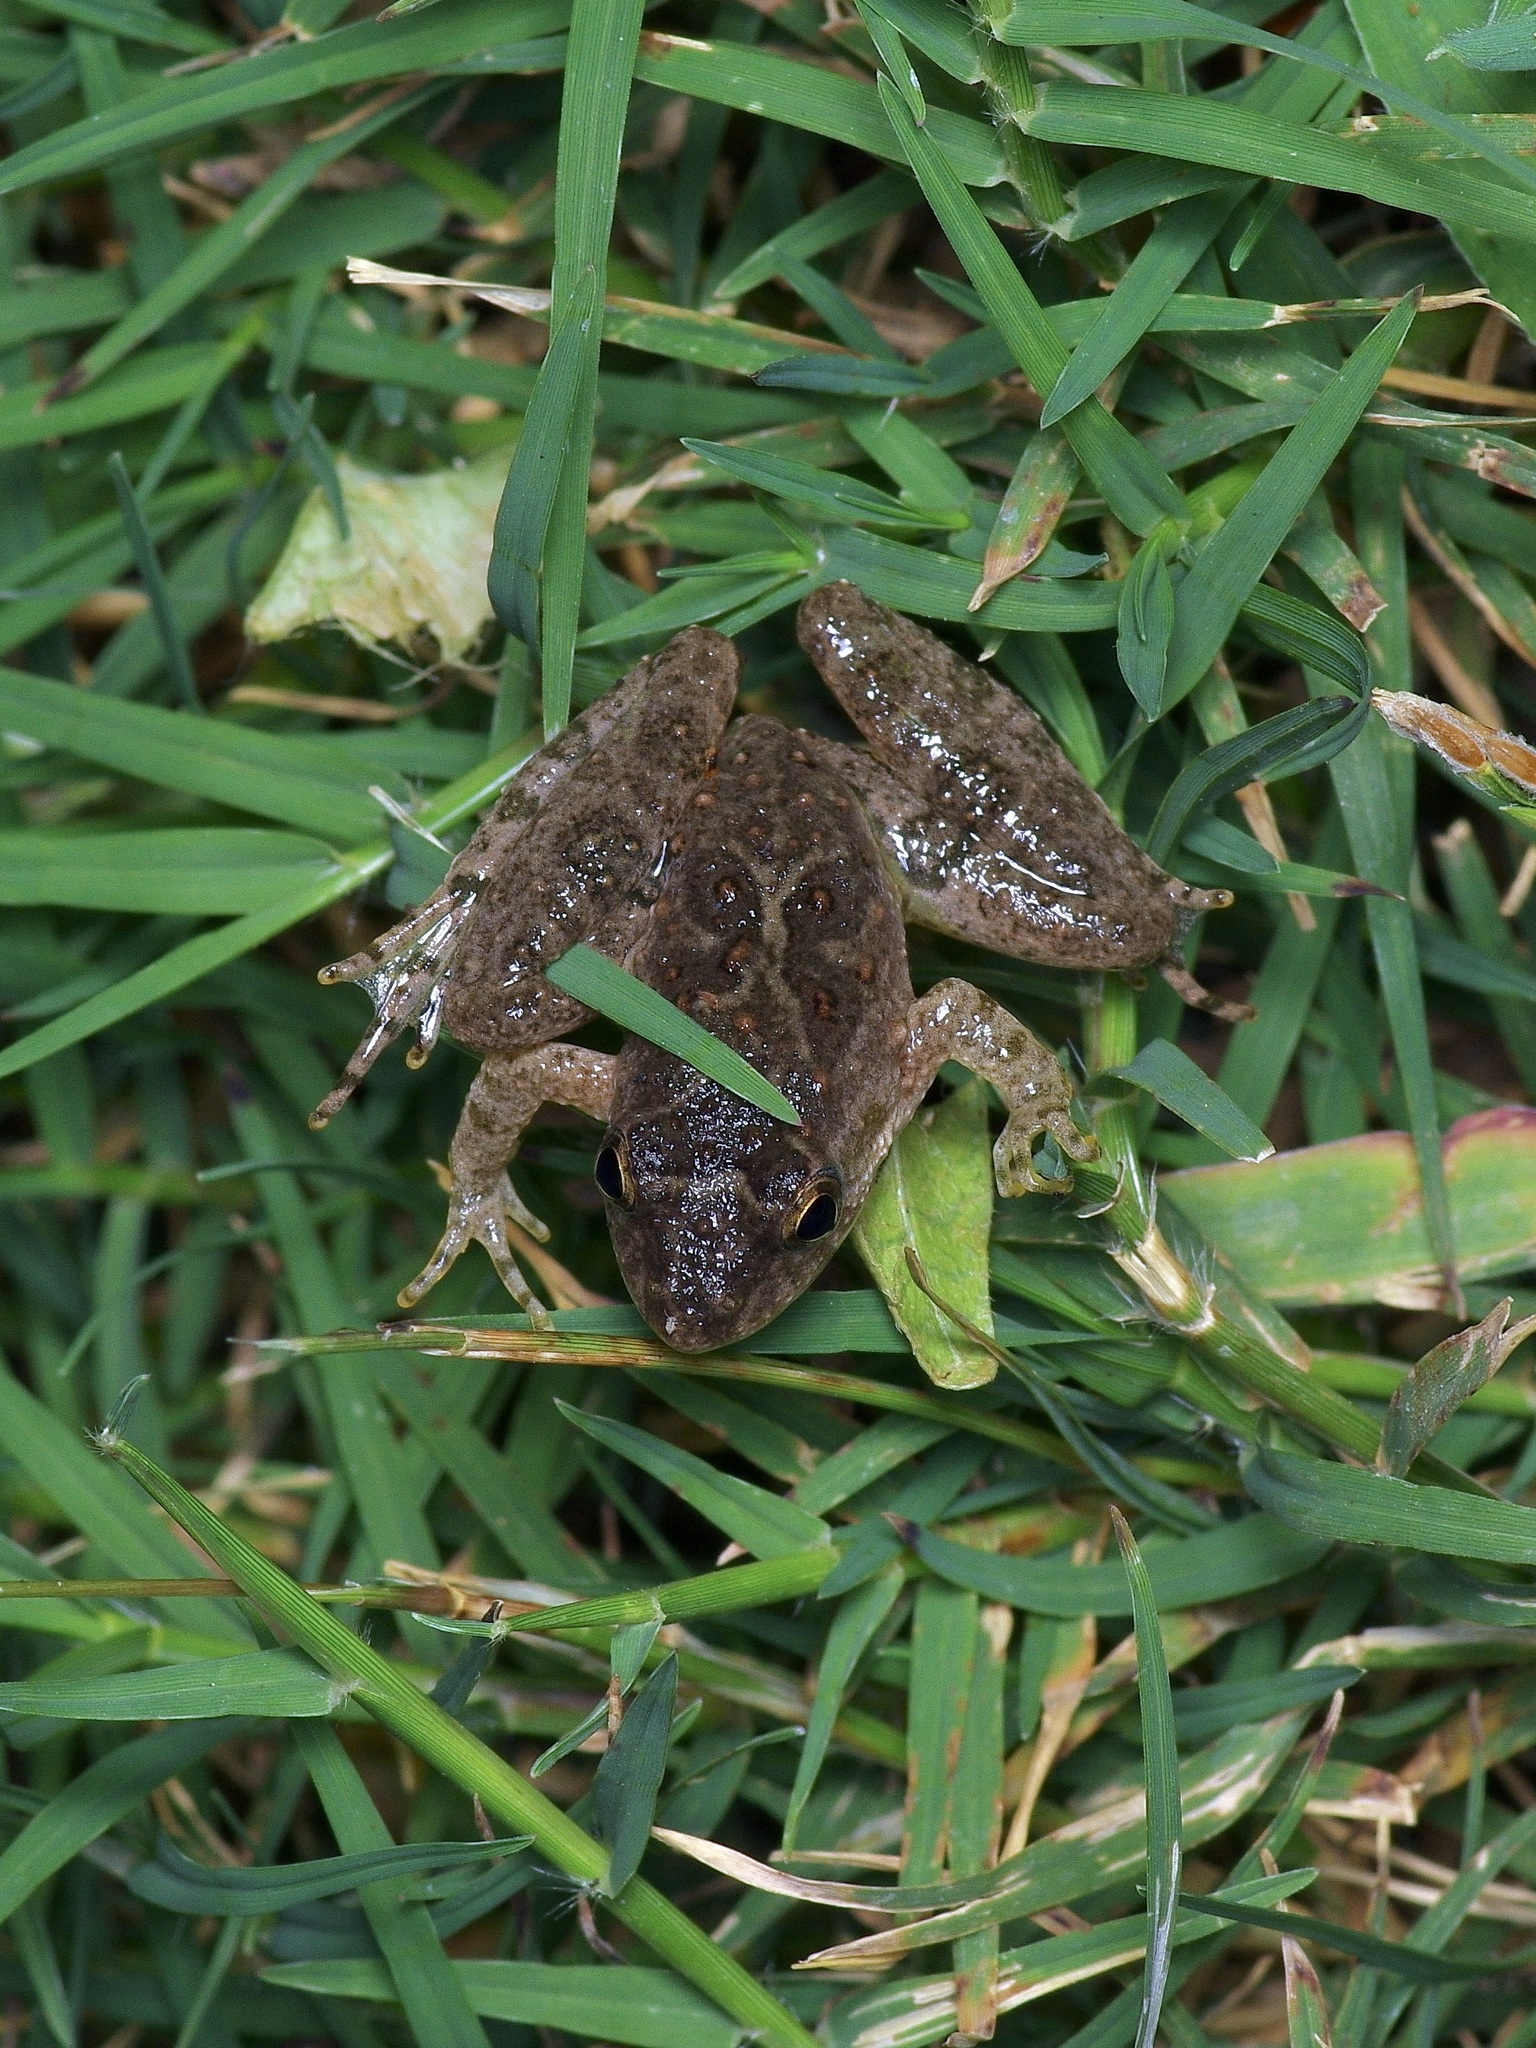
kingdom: Animalia
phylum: Chordata
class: Amphibia
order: Anura
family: Hylidae
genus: Acris
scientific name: Acris blanchardi
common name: Blanchard's cricket frog
